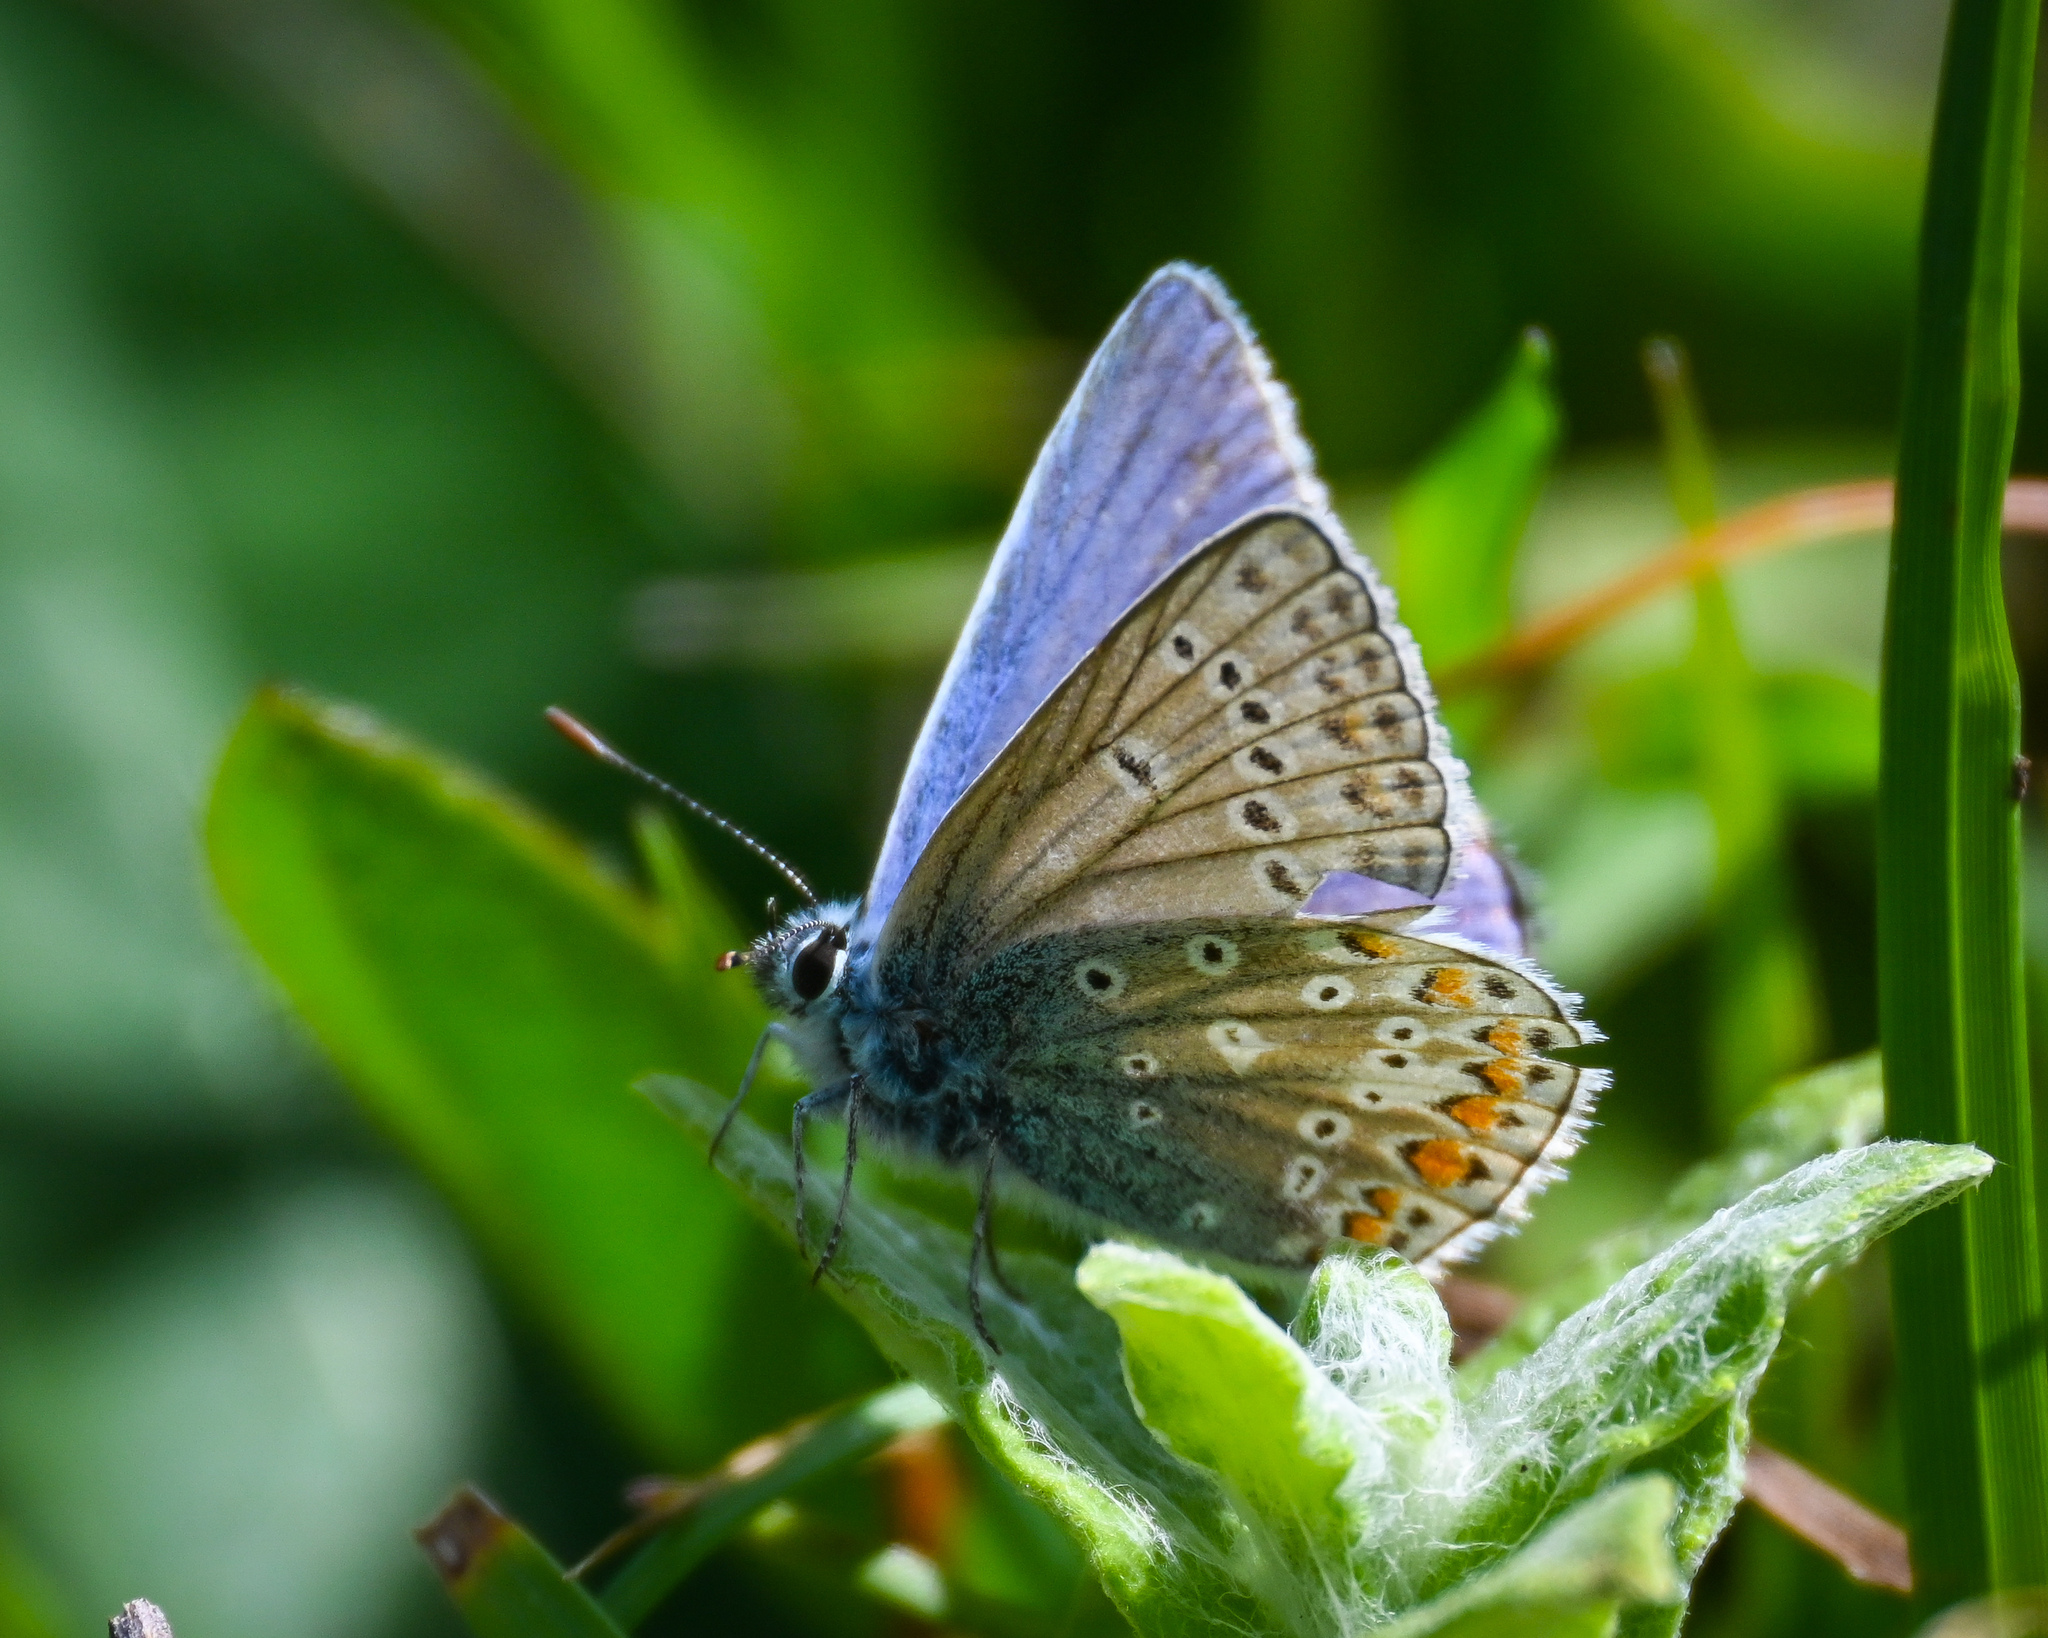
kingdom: Animalia
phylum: Arthropoda
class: Insecta
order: Lepidoptera
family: Lycaenidae
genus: Polyommatus
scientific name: Polyommatus icarus
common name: Common blue
